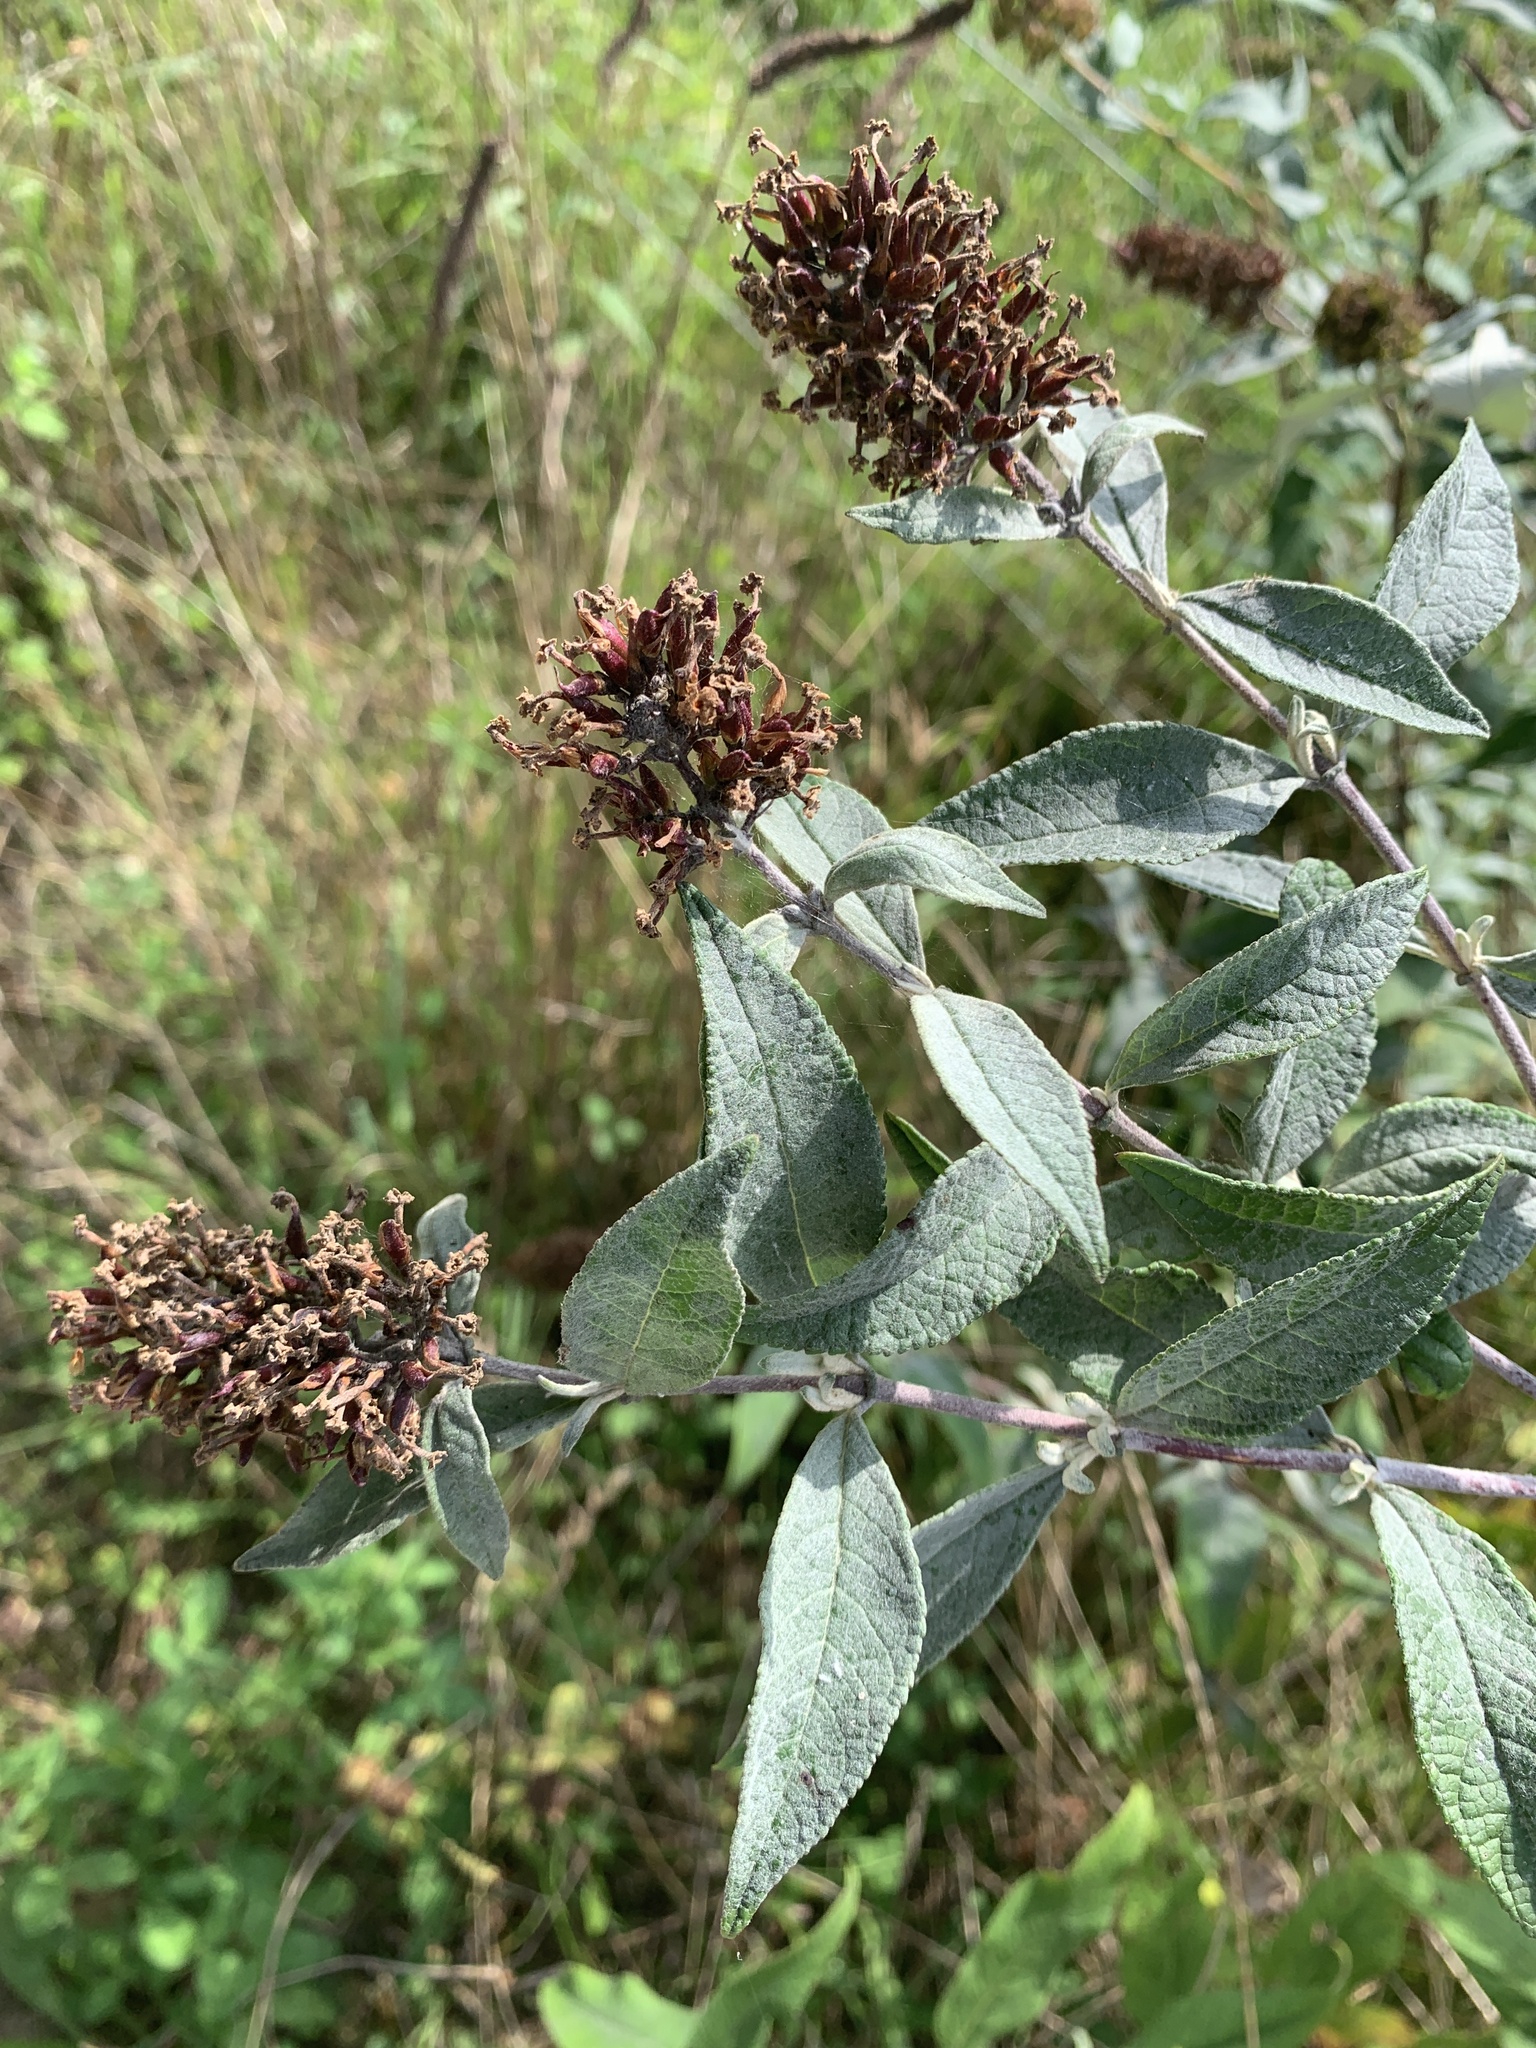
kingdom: Plantae
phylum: Tracheophyta
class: Magnoliopsida
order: Lamiales
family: Scrophulariaceae
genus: Buddleja
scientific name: Buddleja davidii
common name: Butterfly-bush
